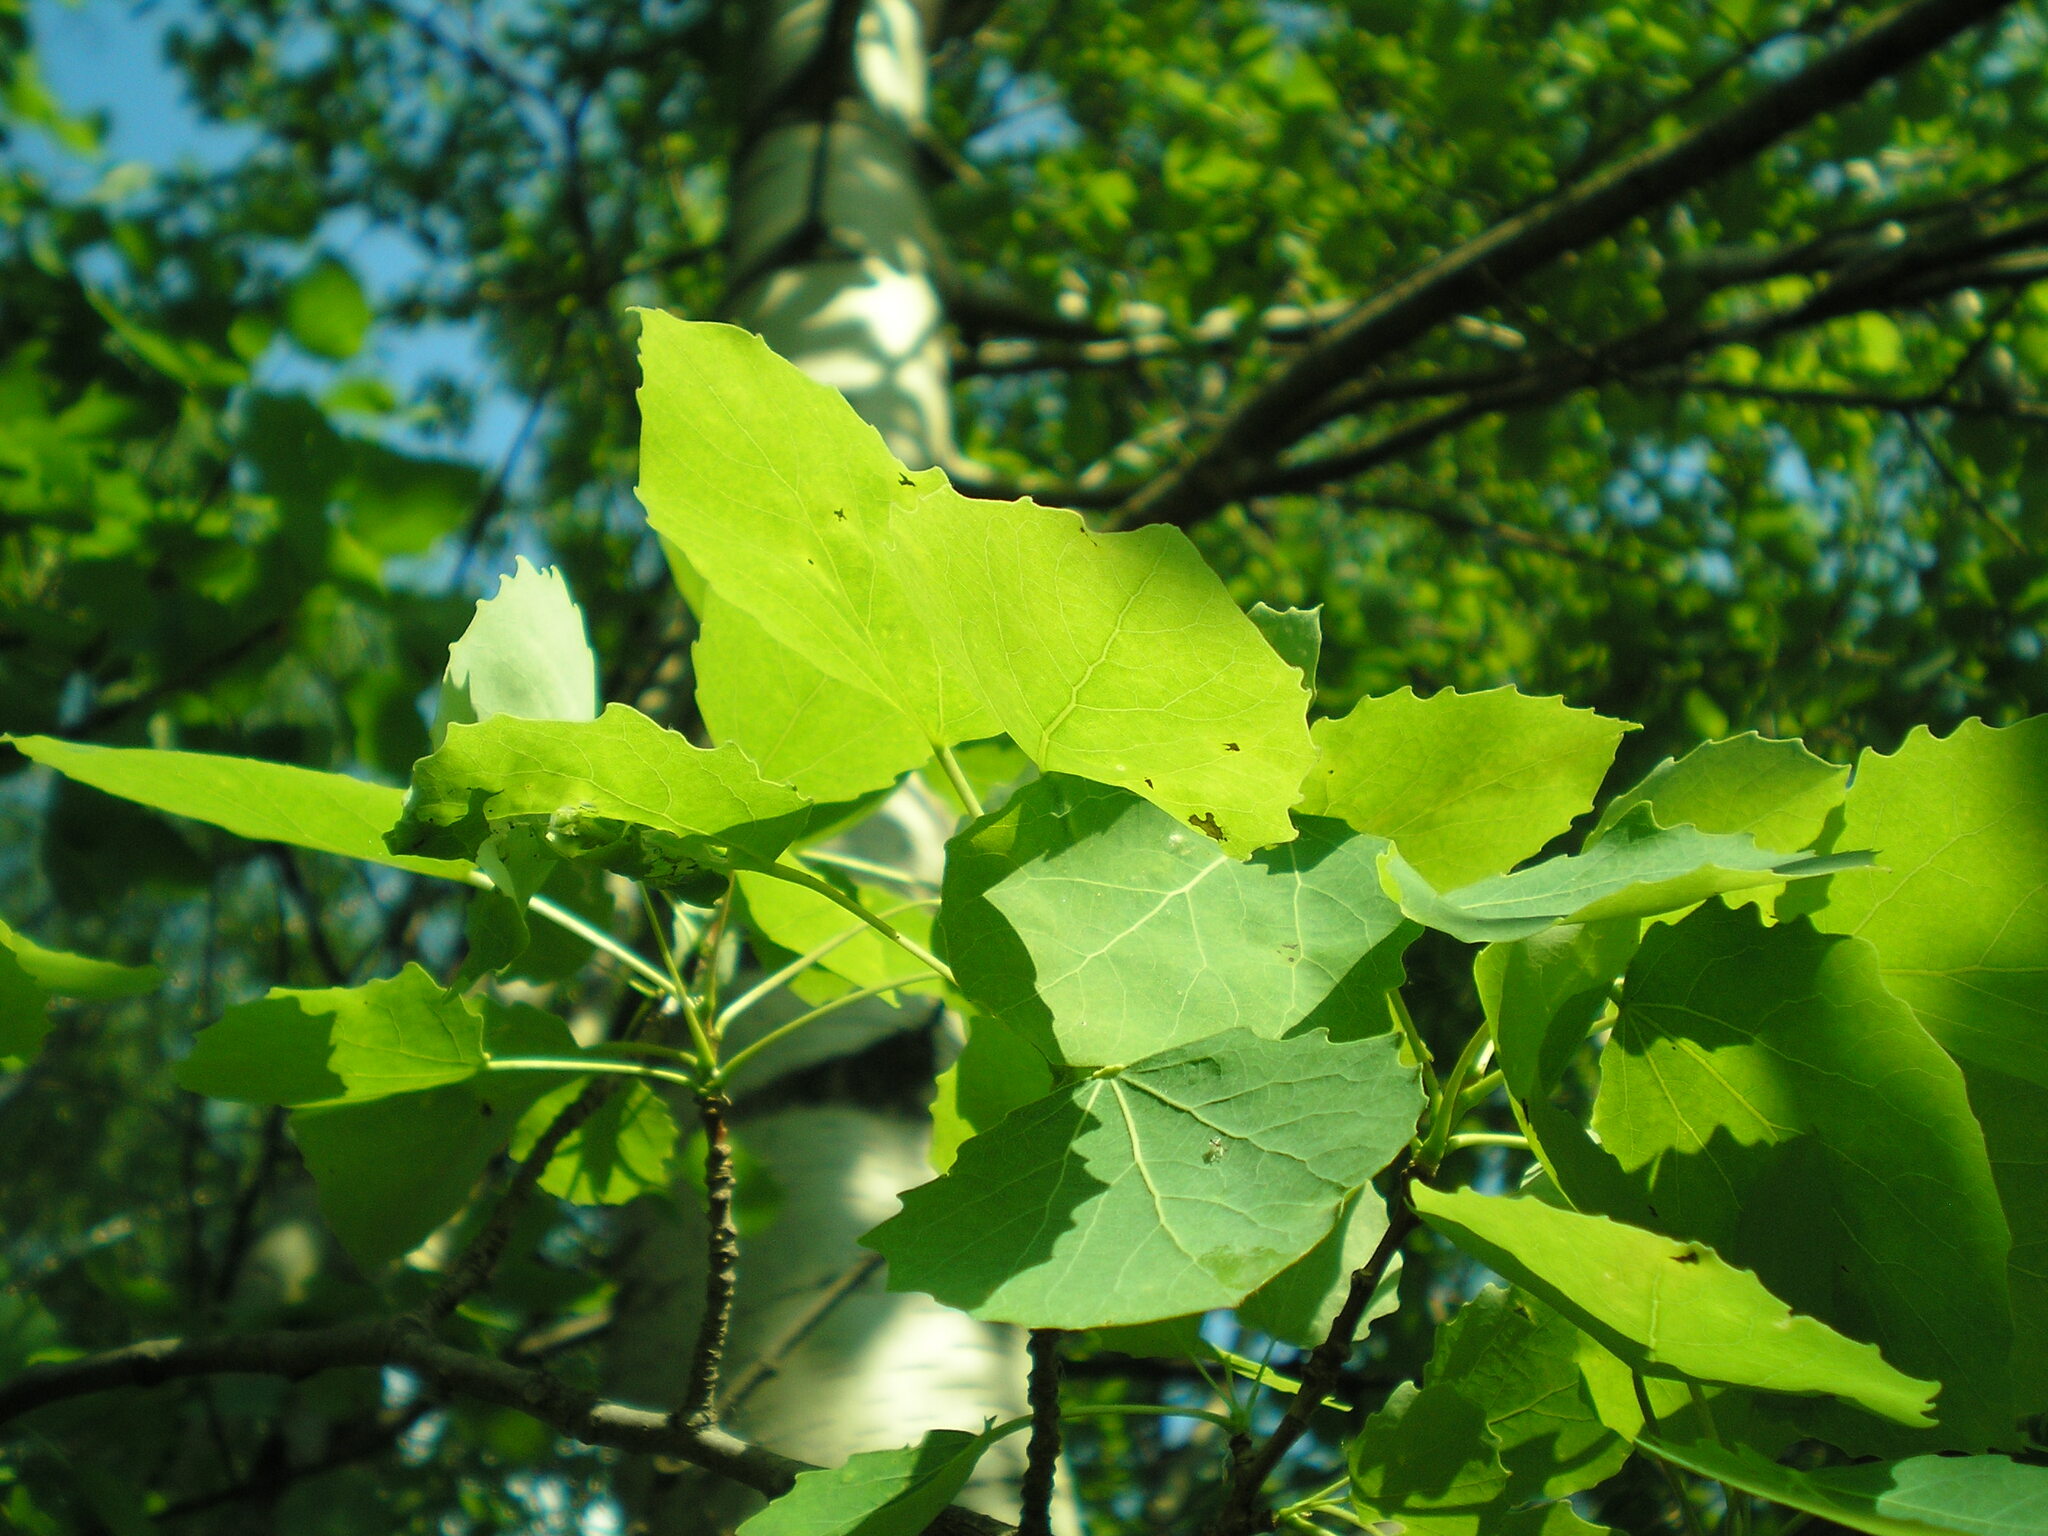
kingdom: Plantae
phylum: Tracheophyta
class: Magnoliopsida
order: Malpighiales
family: Salicaceae
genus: Populus
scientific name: Populus tremula
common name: European aspen
